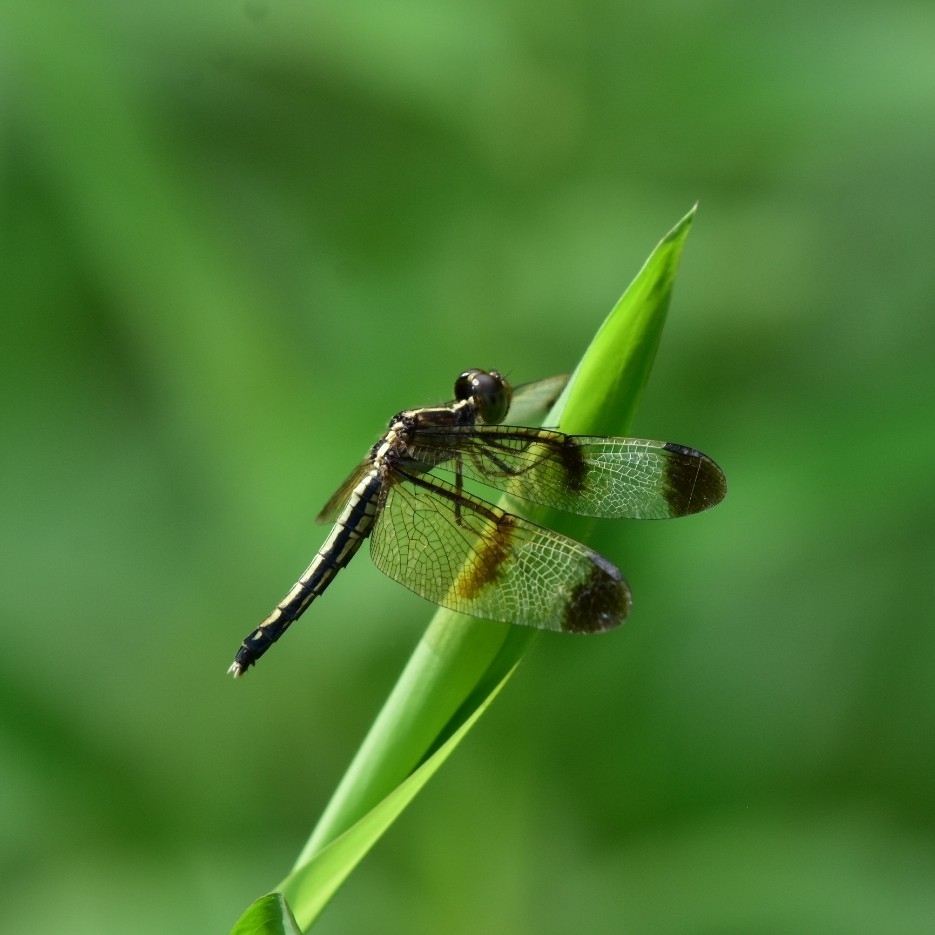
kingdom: Animalia
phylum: Arthropoda
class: Insecta
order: Odonata
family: Libellulidae
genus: Neurothemis
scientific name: Neurothemis tullia
